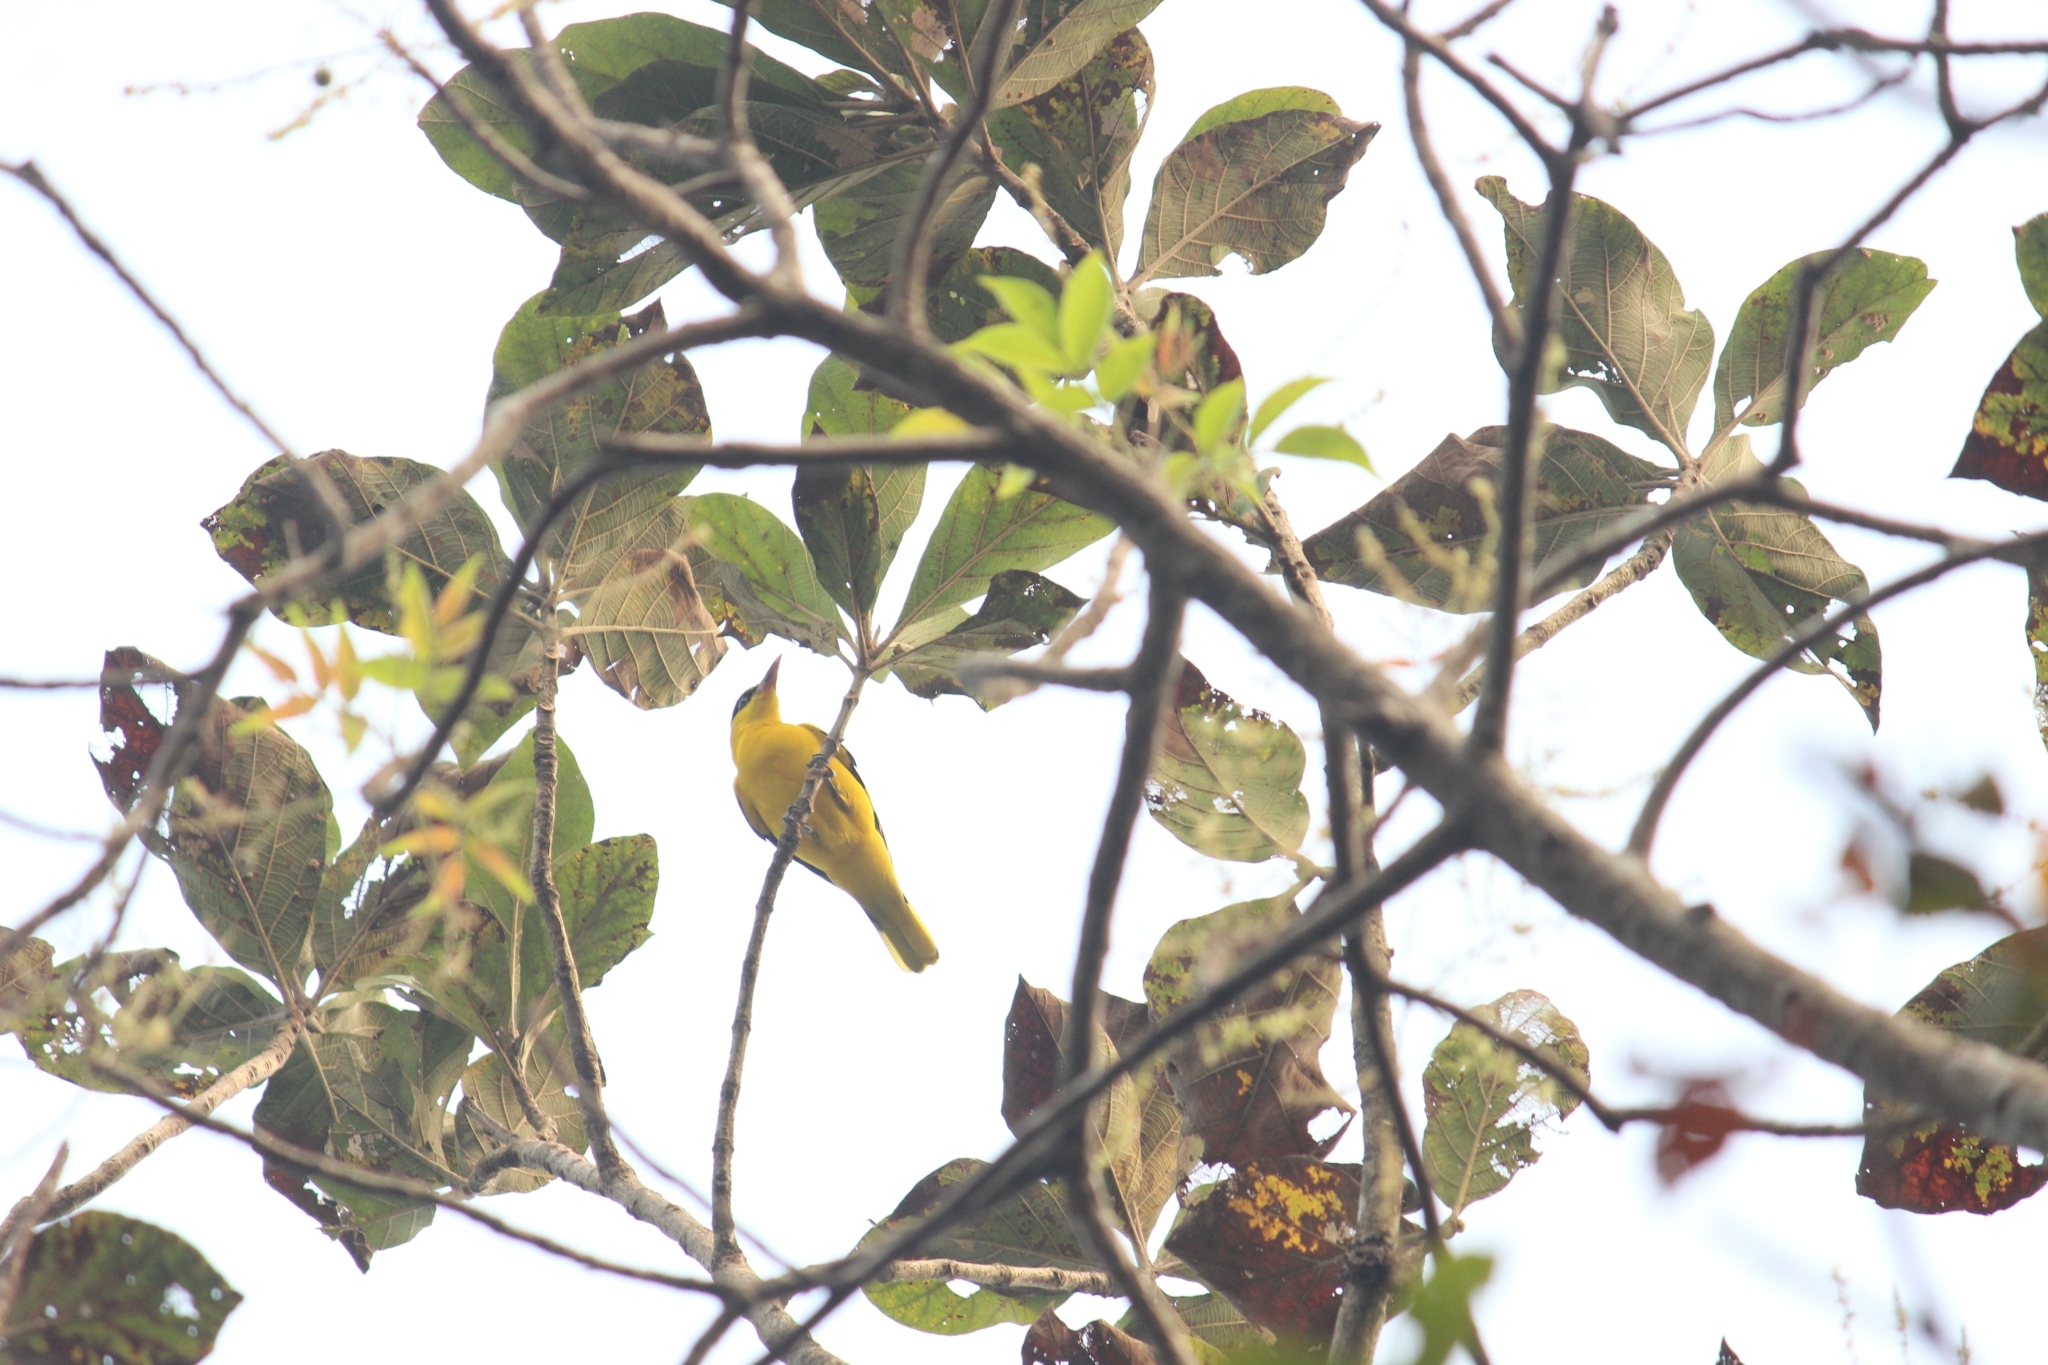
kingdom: Animalia
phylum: Chordata
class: Aves
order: Passeriformes
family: Oriolidae
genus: Oriolus
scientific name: Oriolus kundoo
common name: Indian golden oriole
